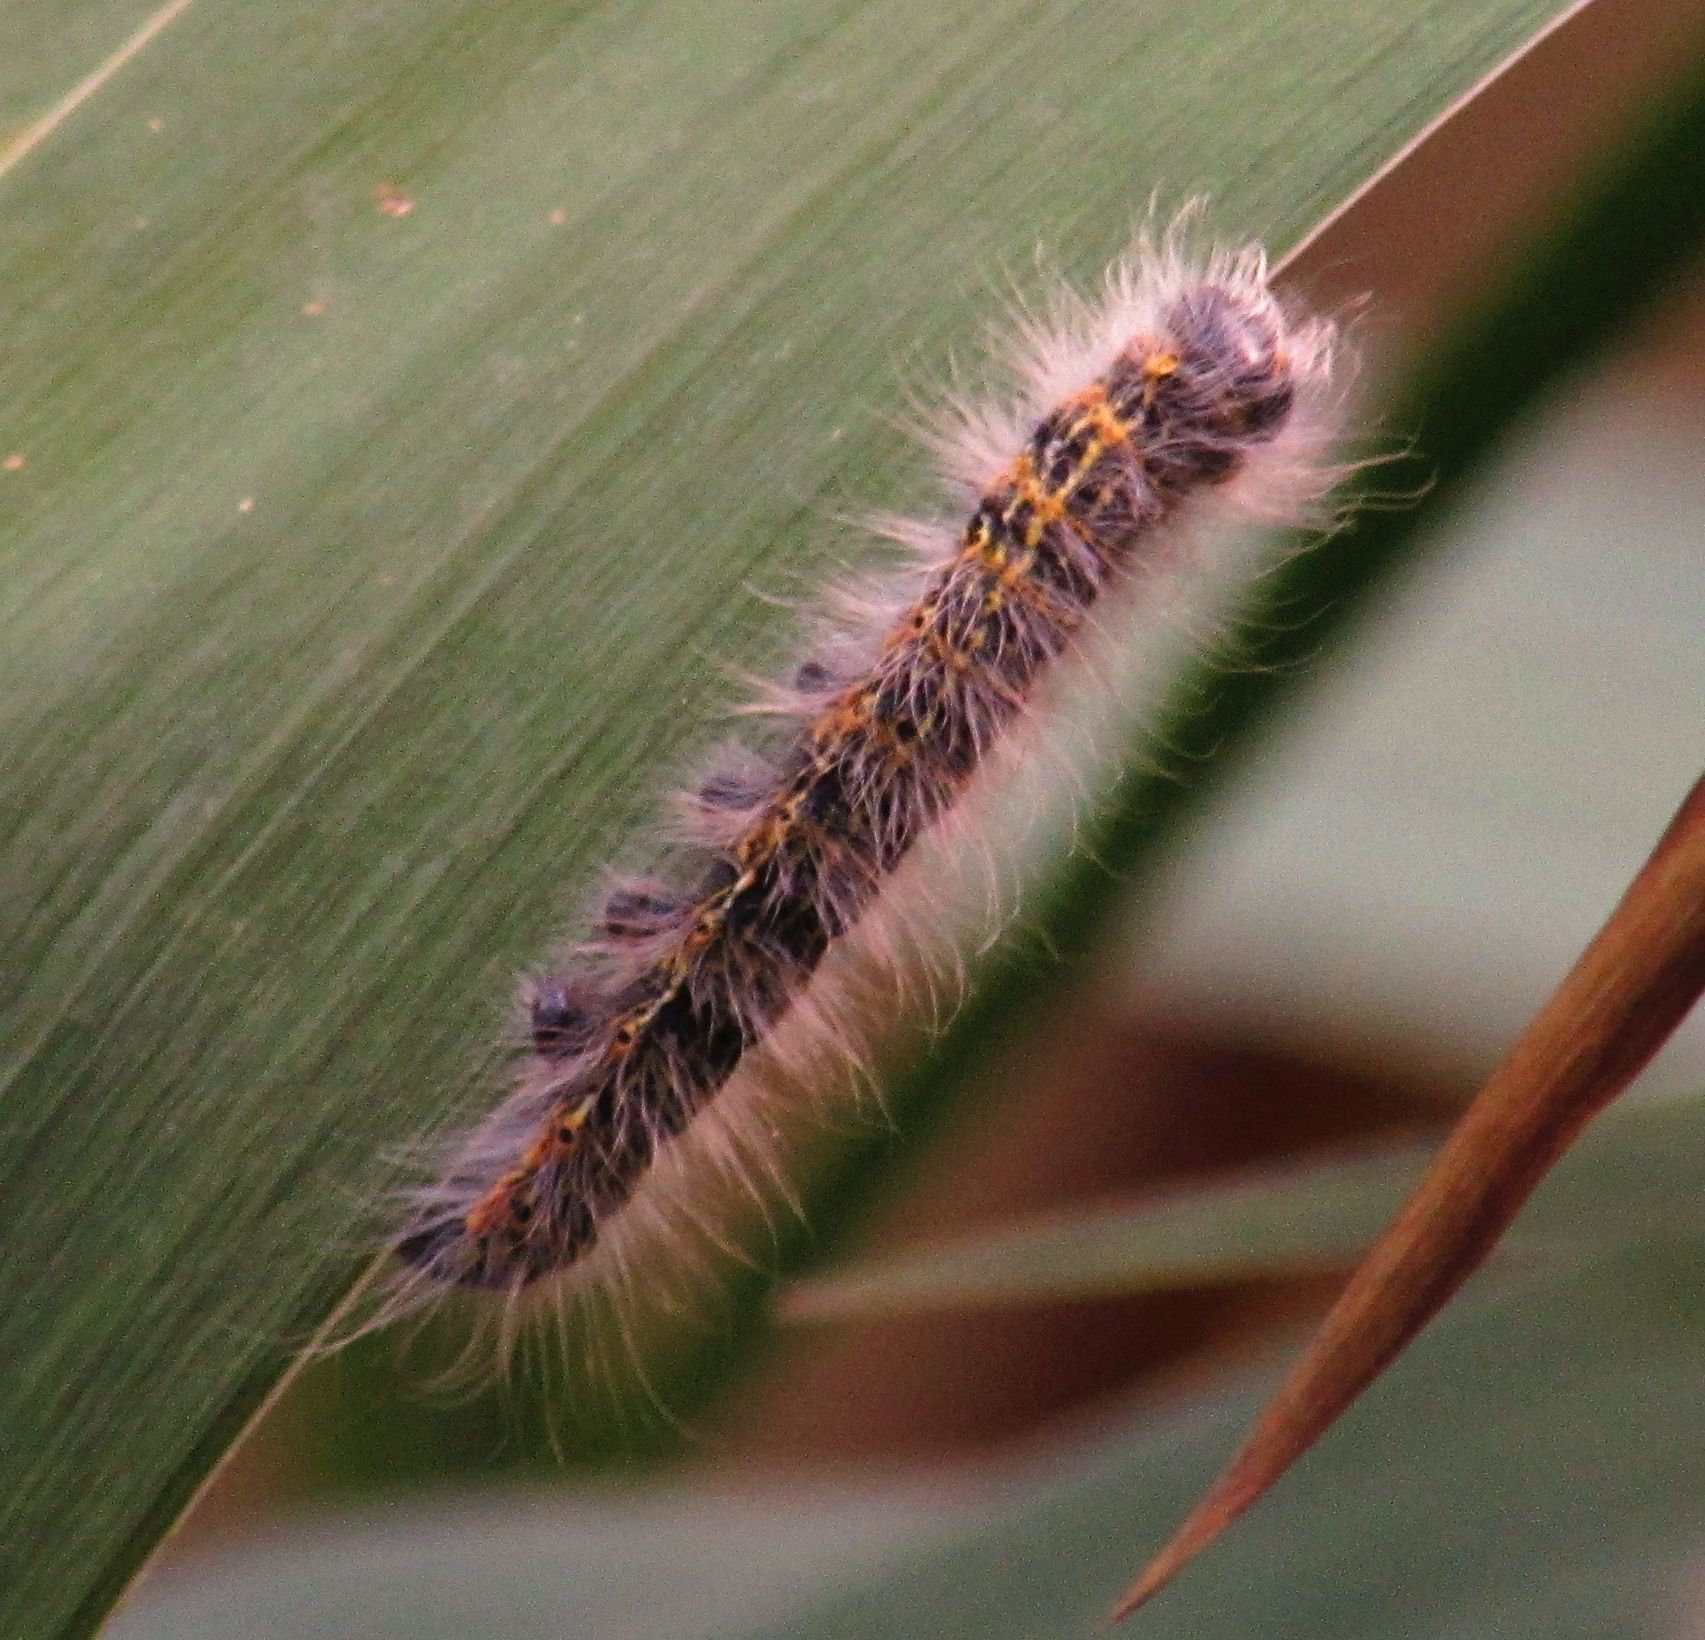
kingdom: Animalia
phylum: Arthropoda
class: Insecta
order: Lepidoptera
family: Notodontidae
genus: Phalera
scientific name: Phalera bucephala
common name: Buff-tip
